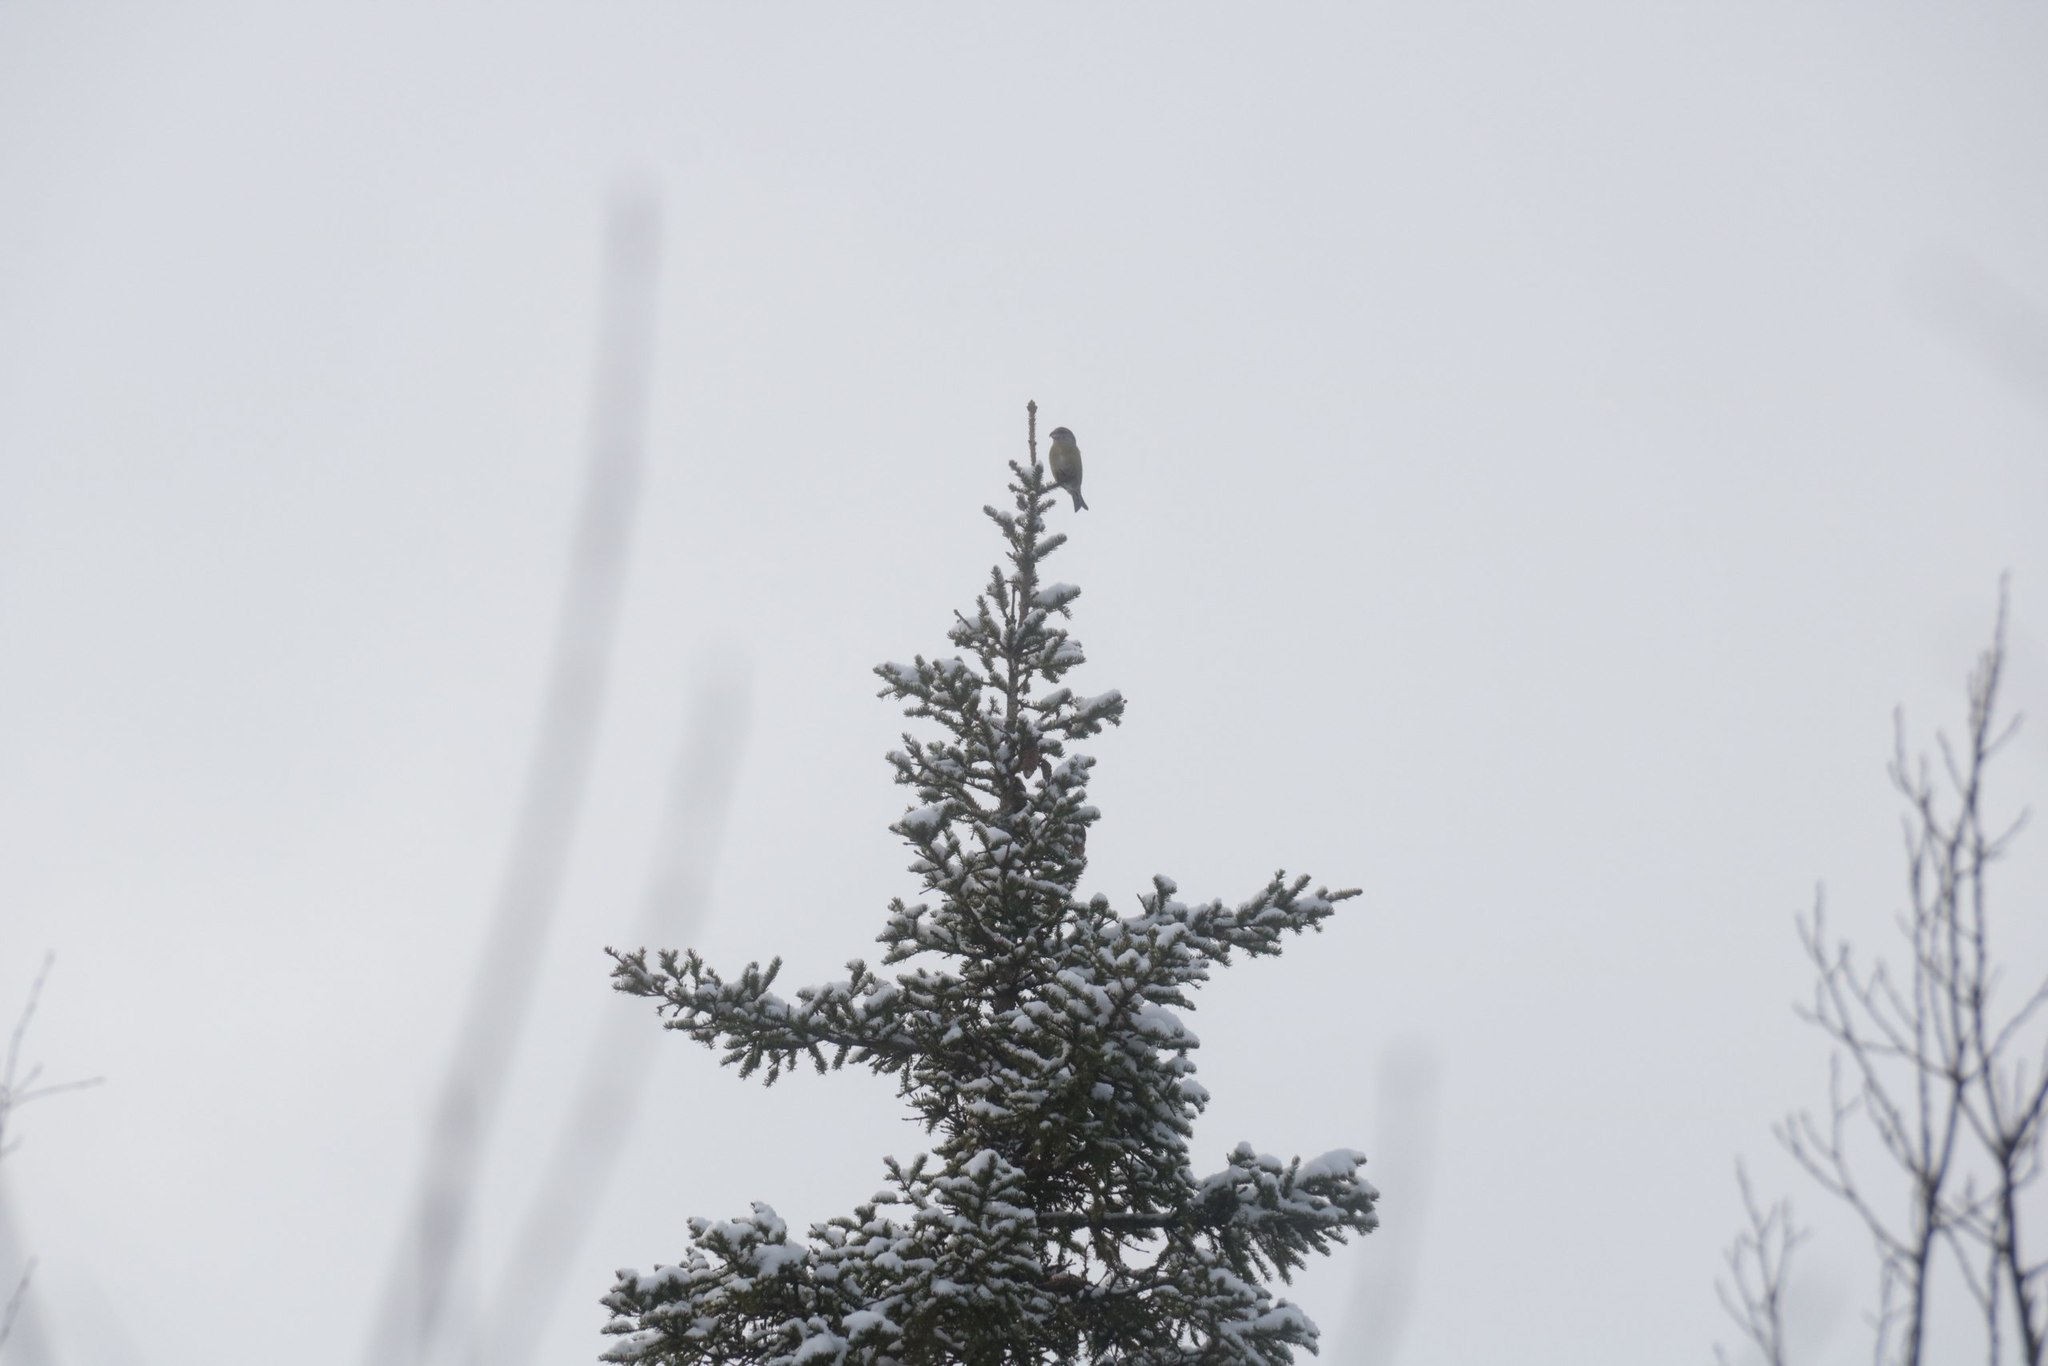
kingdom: Animalia
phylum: Chordata
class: Aves
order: Passeriformes
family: Fringillidae
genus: Loxia
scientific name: Loxia curvirostra
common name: Red crossbill
